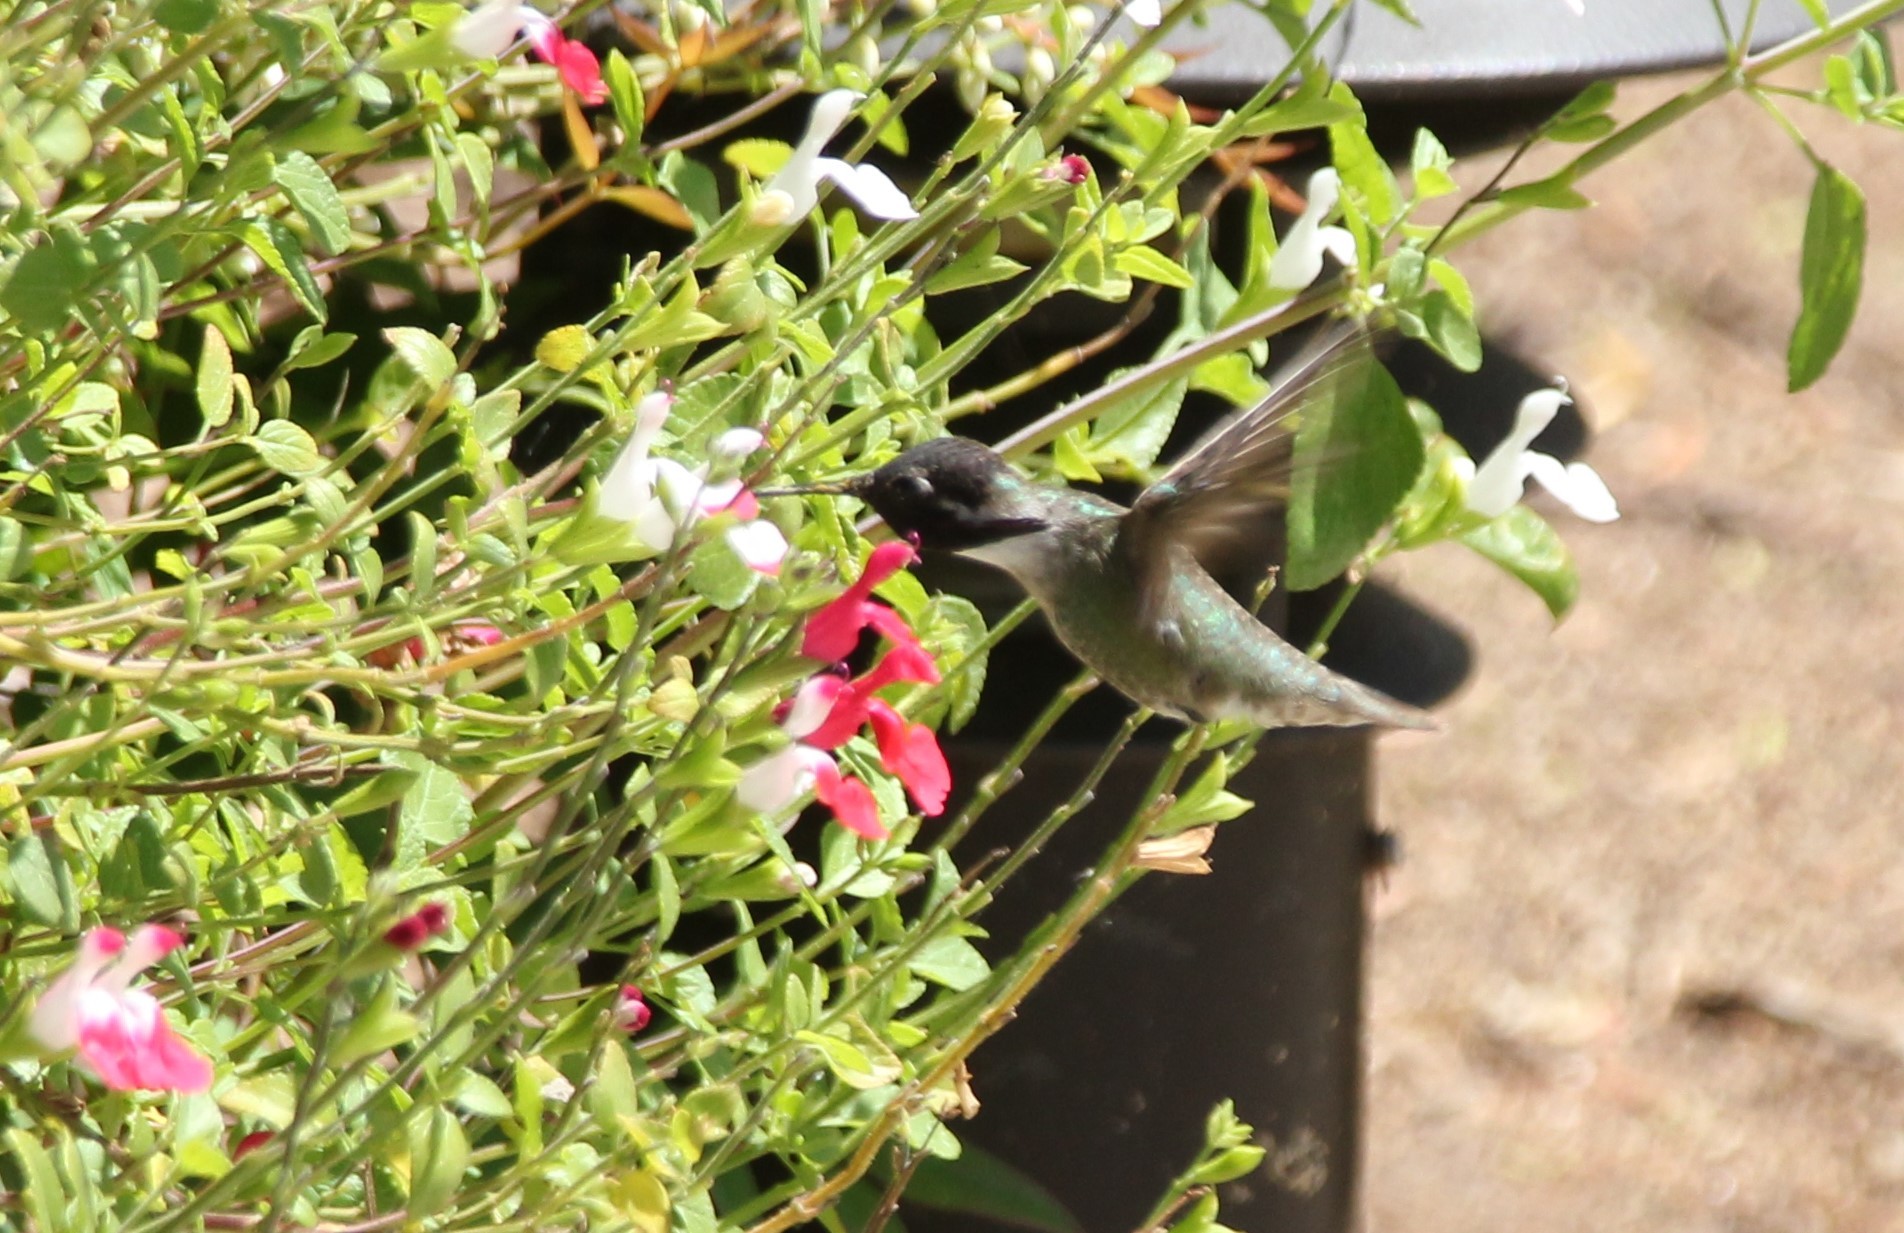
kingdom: Animalia
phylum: Chordata
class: Aves
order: Apodiformes
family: Trochilidae
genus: Calypte
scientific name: Calypte costae
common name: Costa's hummingbird
